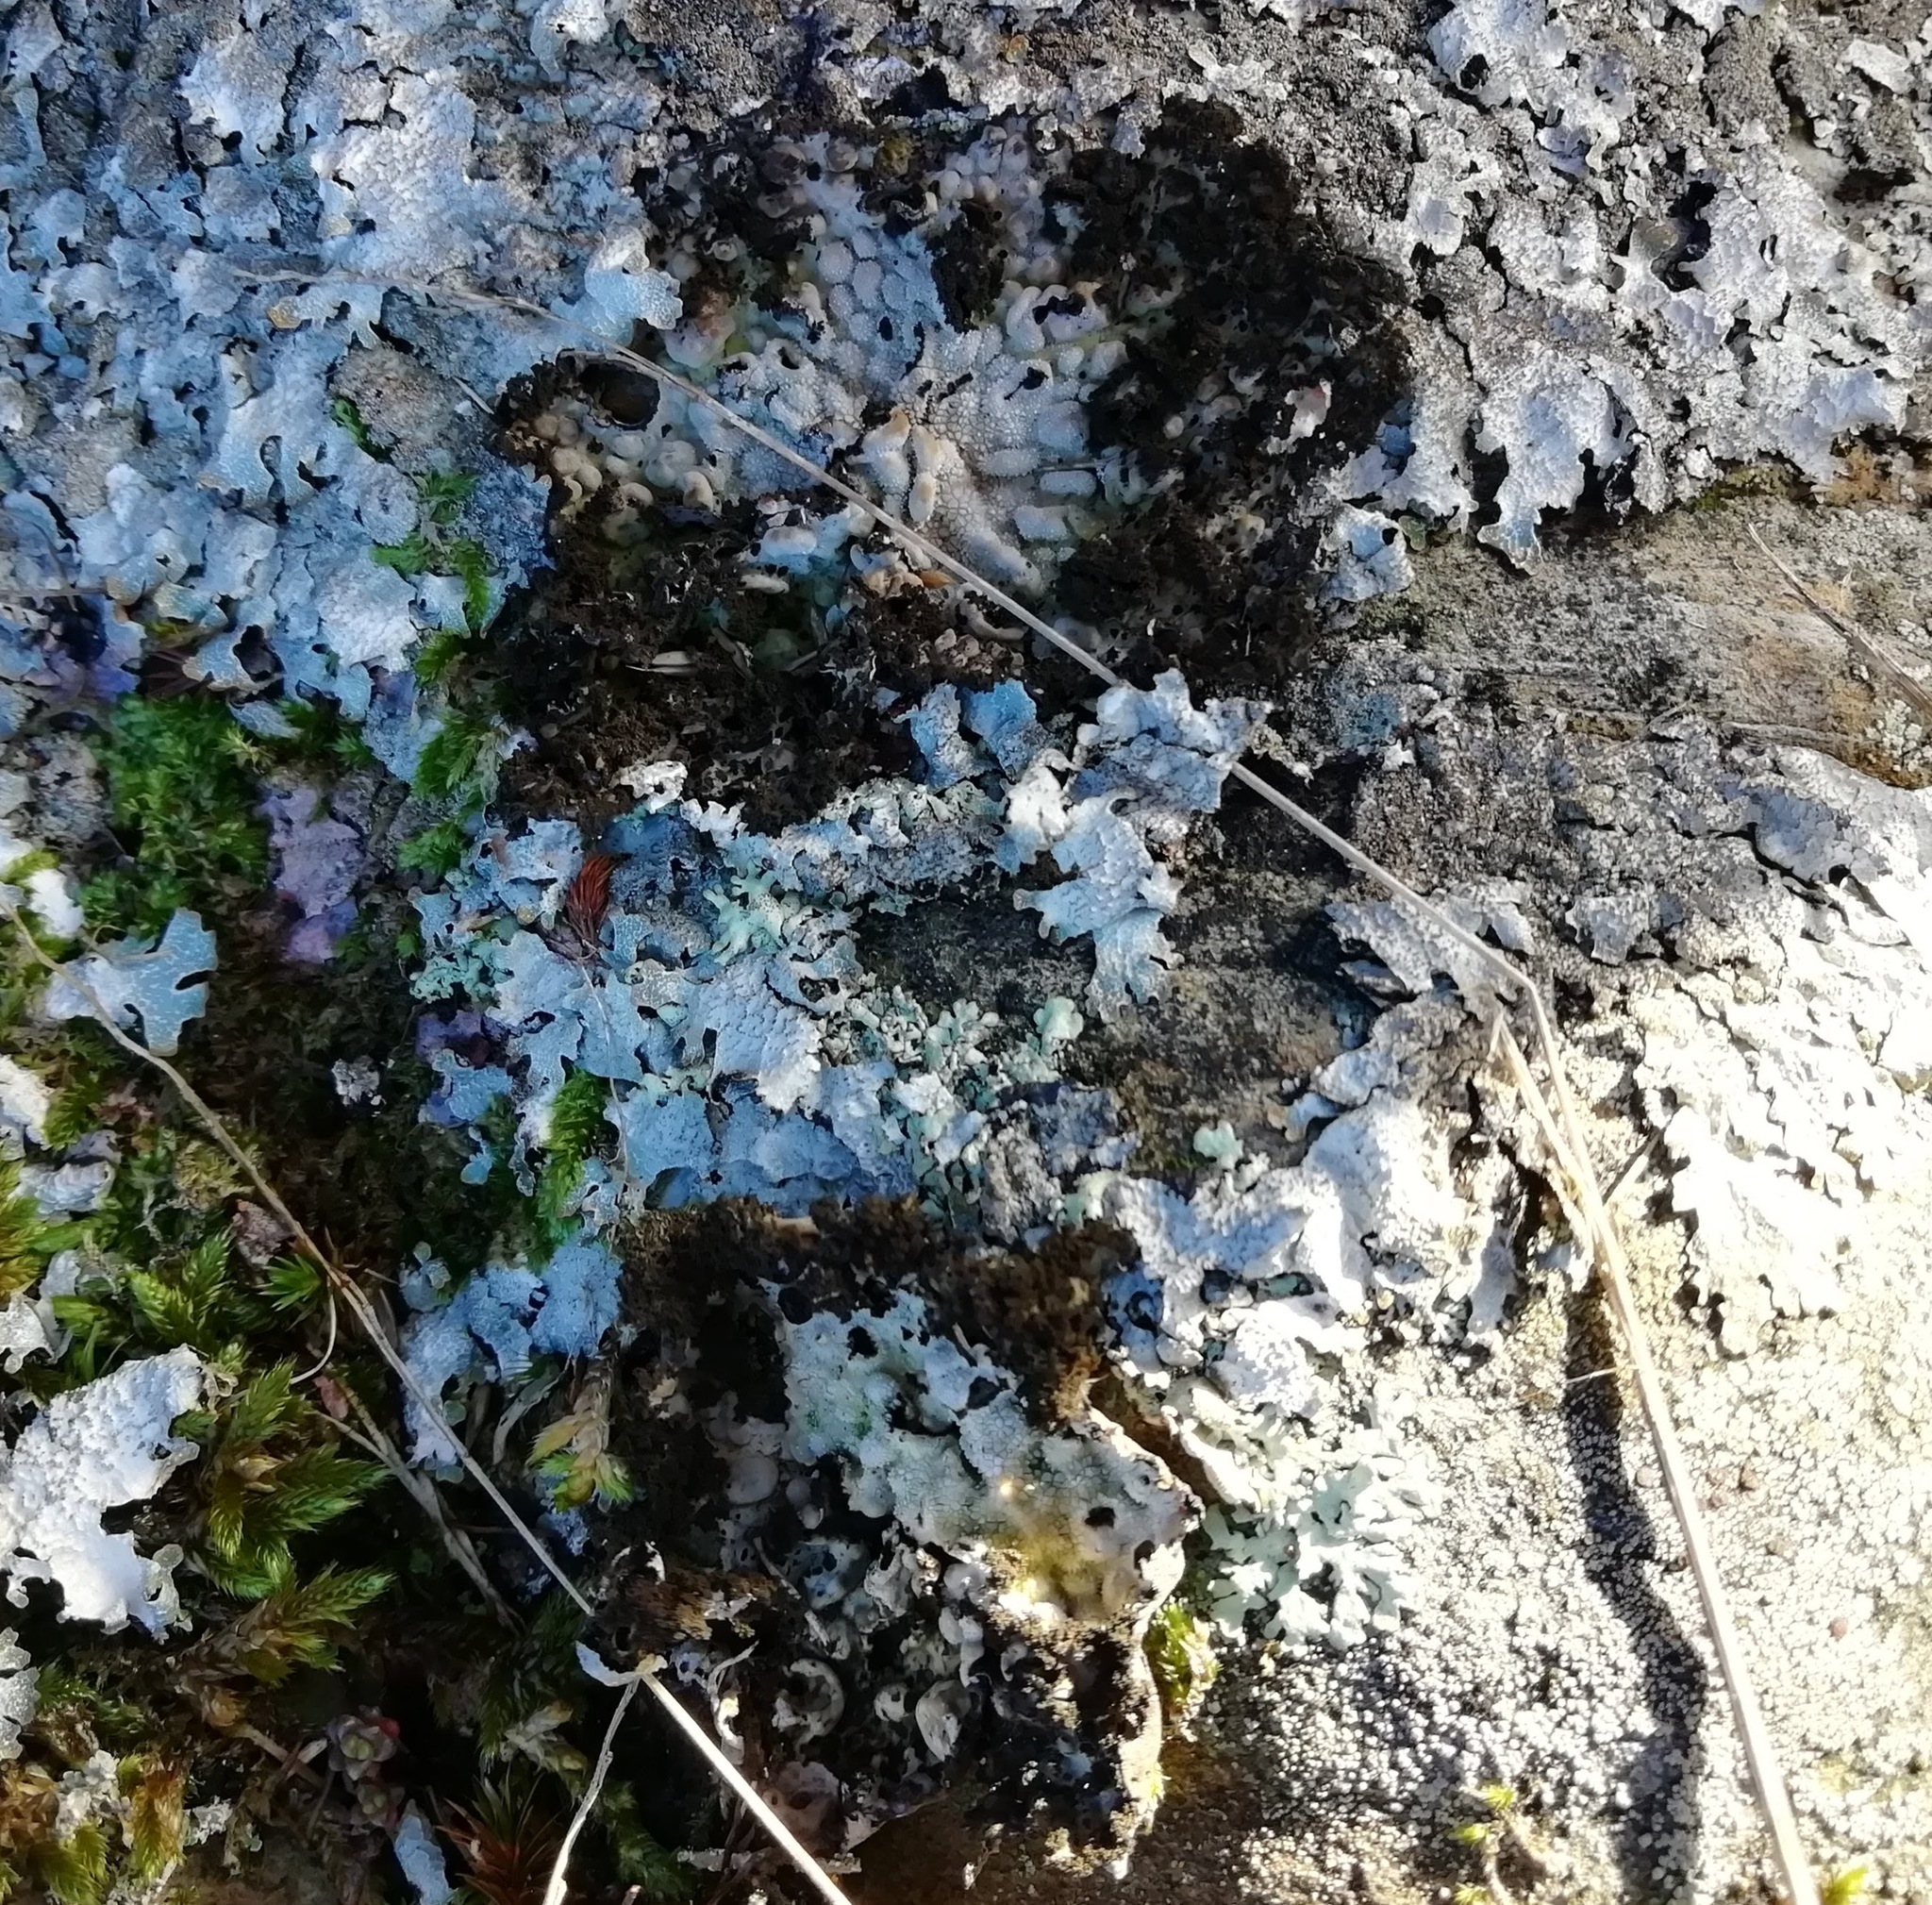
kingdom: Fungi
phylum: Ascomycota
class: Lecanoromycetes
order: Umbilicariales
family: Umbilicariaceae
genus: Lasallia
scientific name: Lasallia pustulata
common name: Blistered toadskin lichen
